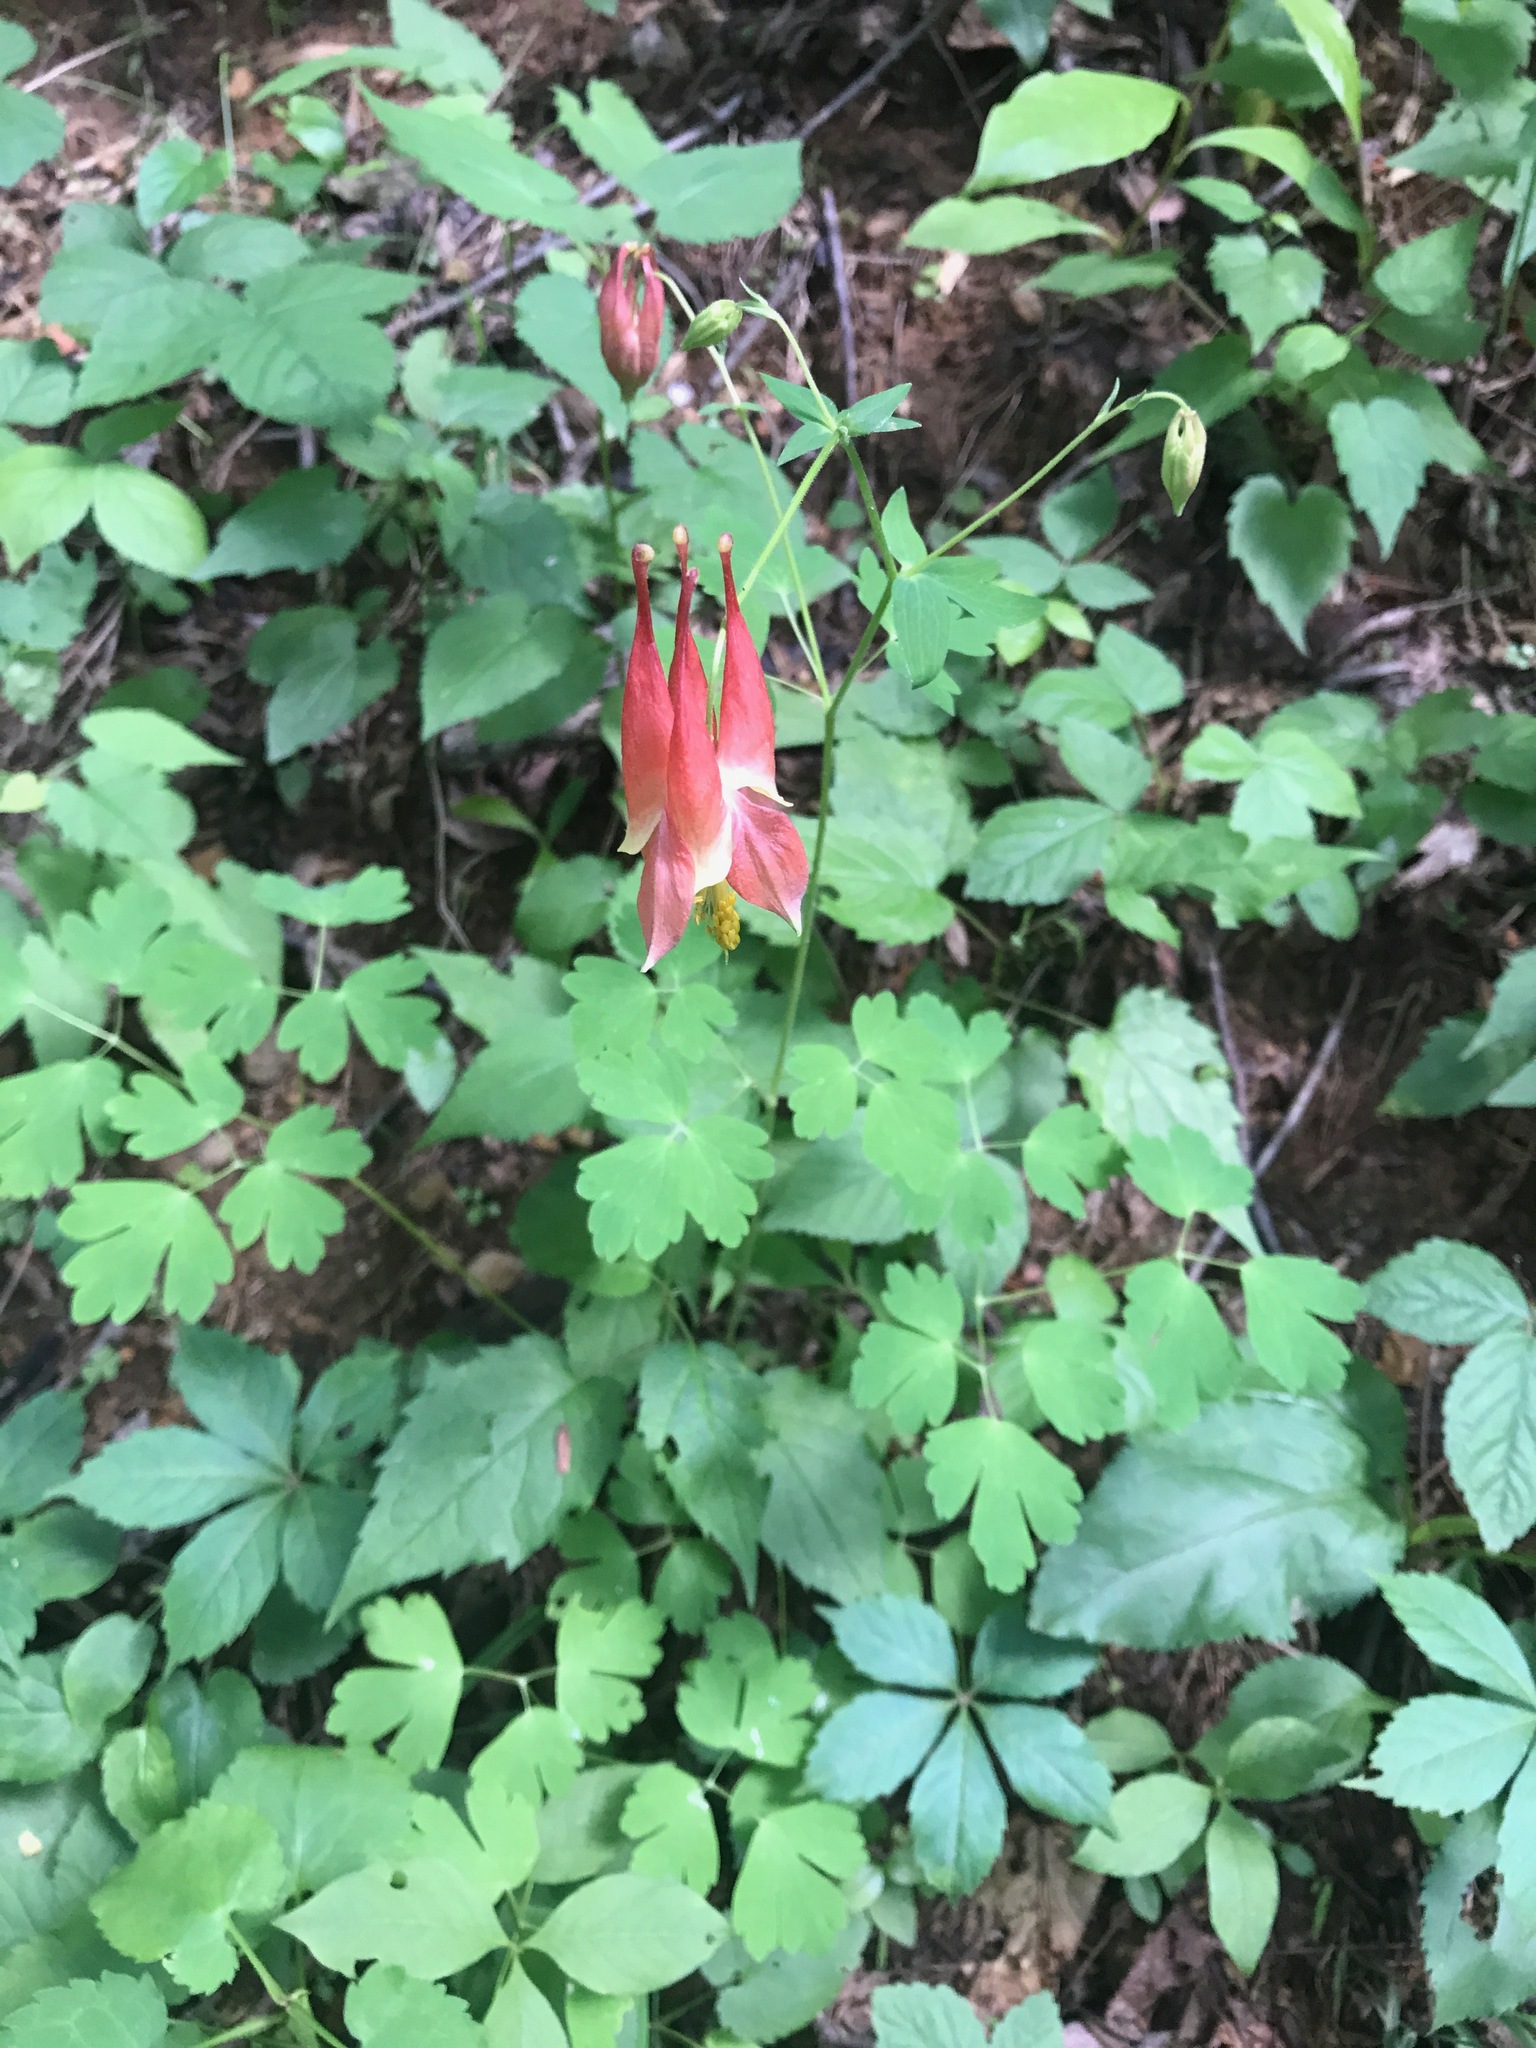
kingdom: Plantae
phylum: Tracheophyta
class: Magnoliopsida
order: Ranunculales
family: Ranunculaceae
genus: Aquilegia
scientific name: Aquilegia canadensis
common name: American columbine
